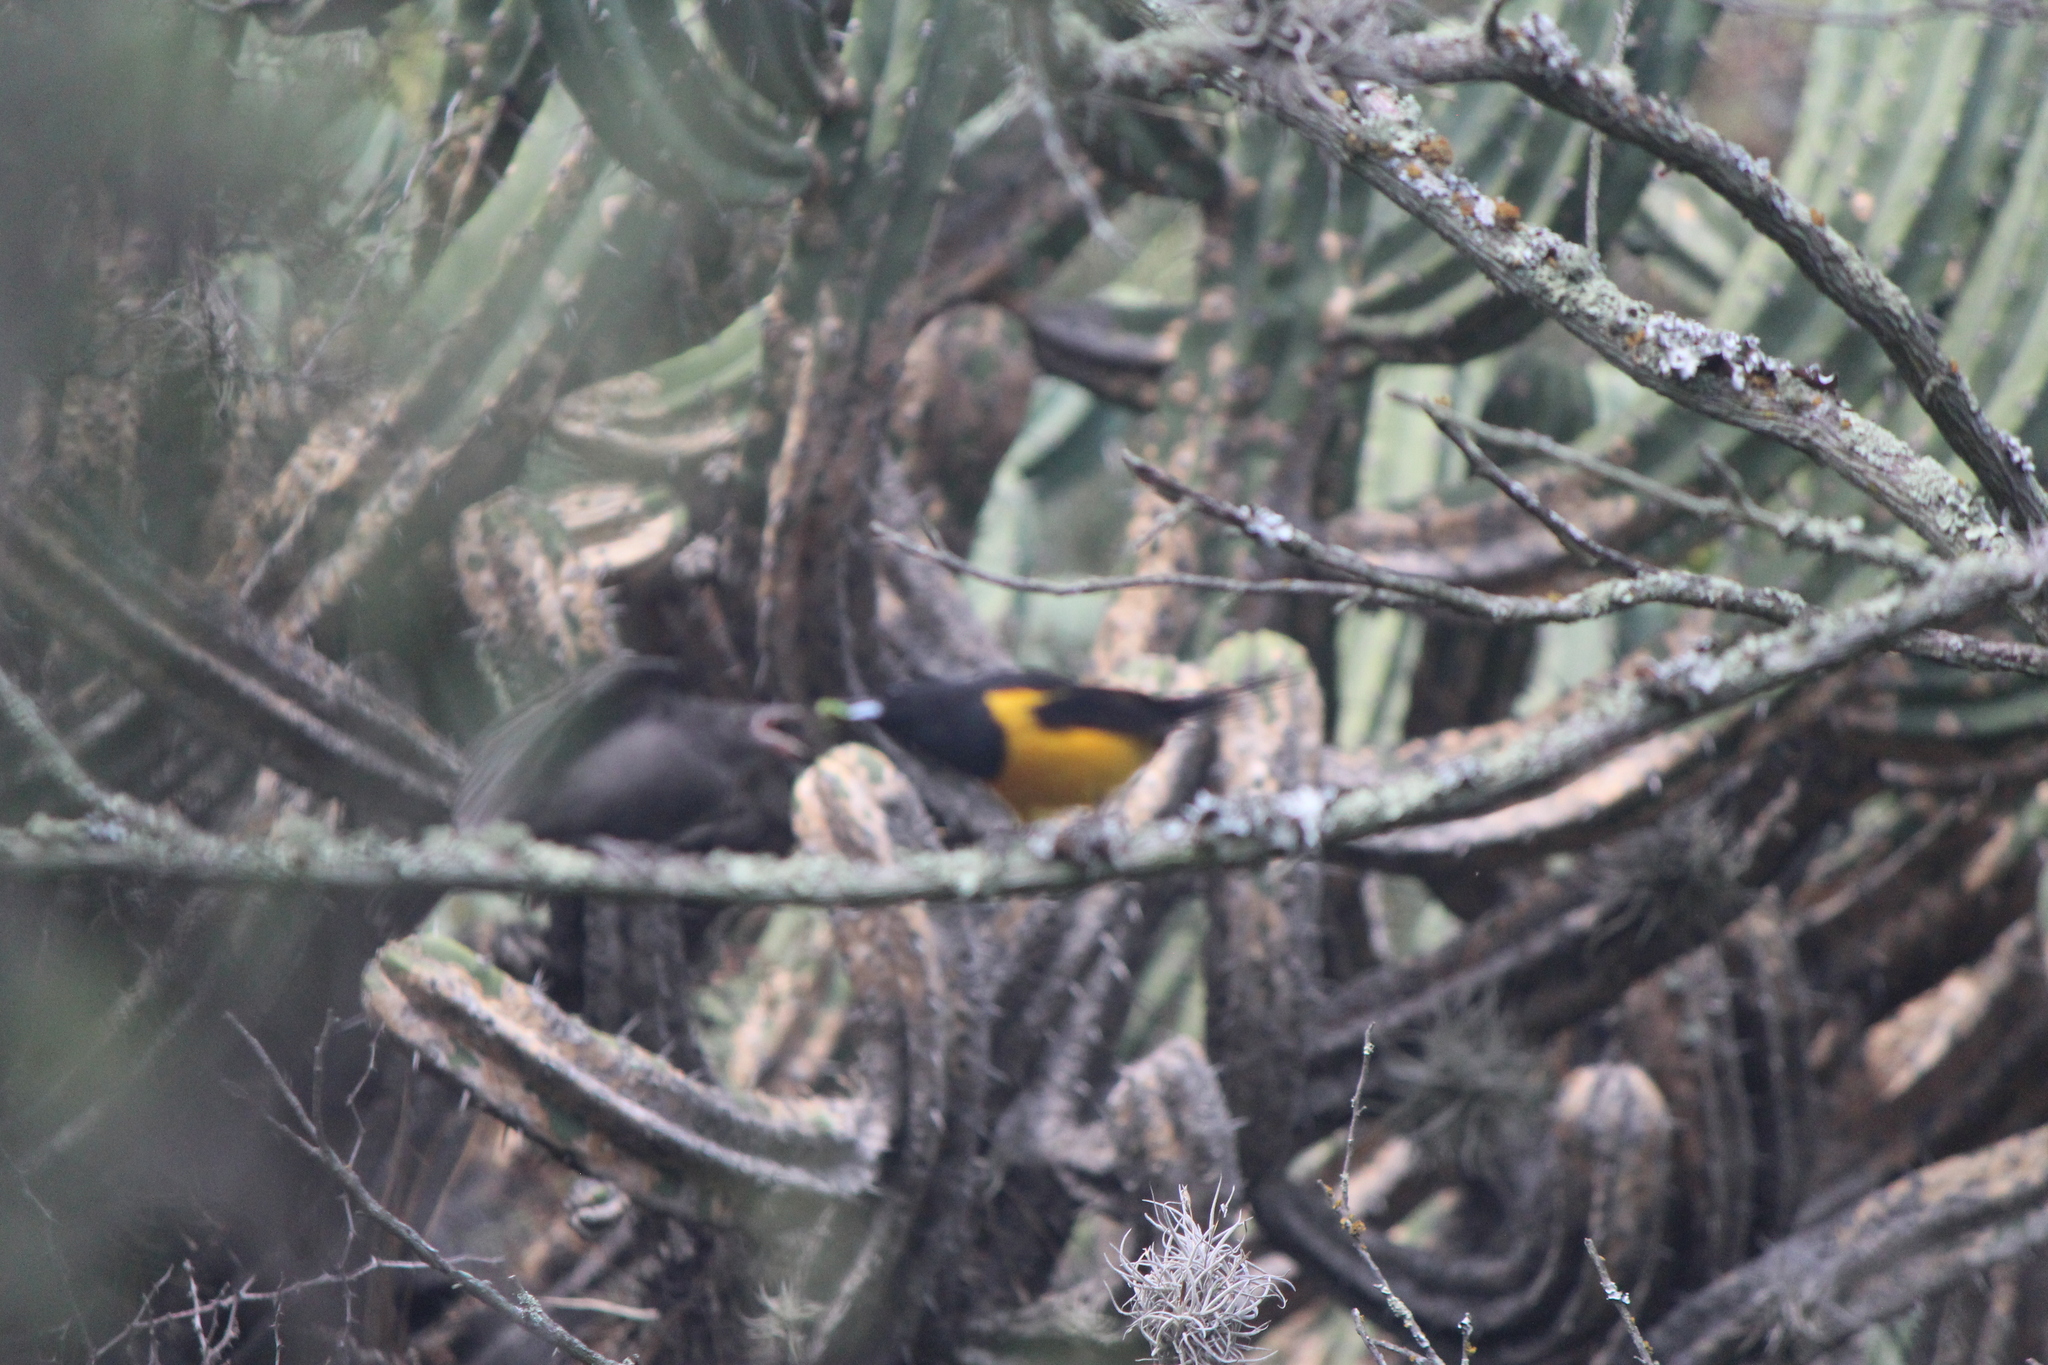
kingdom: Animalia
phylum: Chordata
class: Aves
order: Passeriformes
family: Icteridae
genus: Molothrus
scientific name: Molothrus aeneus
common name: Bronzed cowbird
